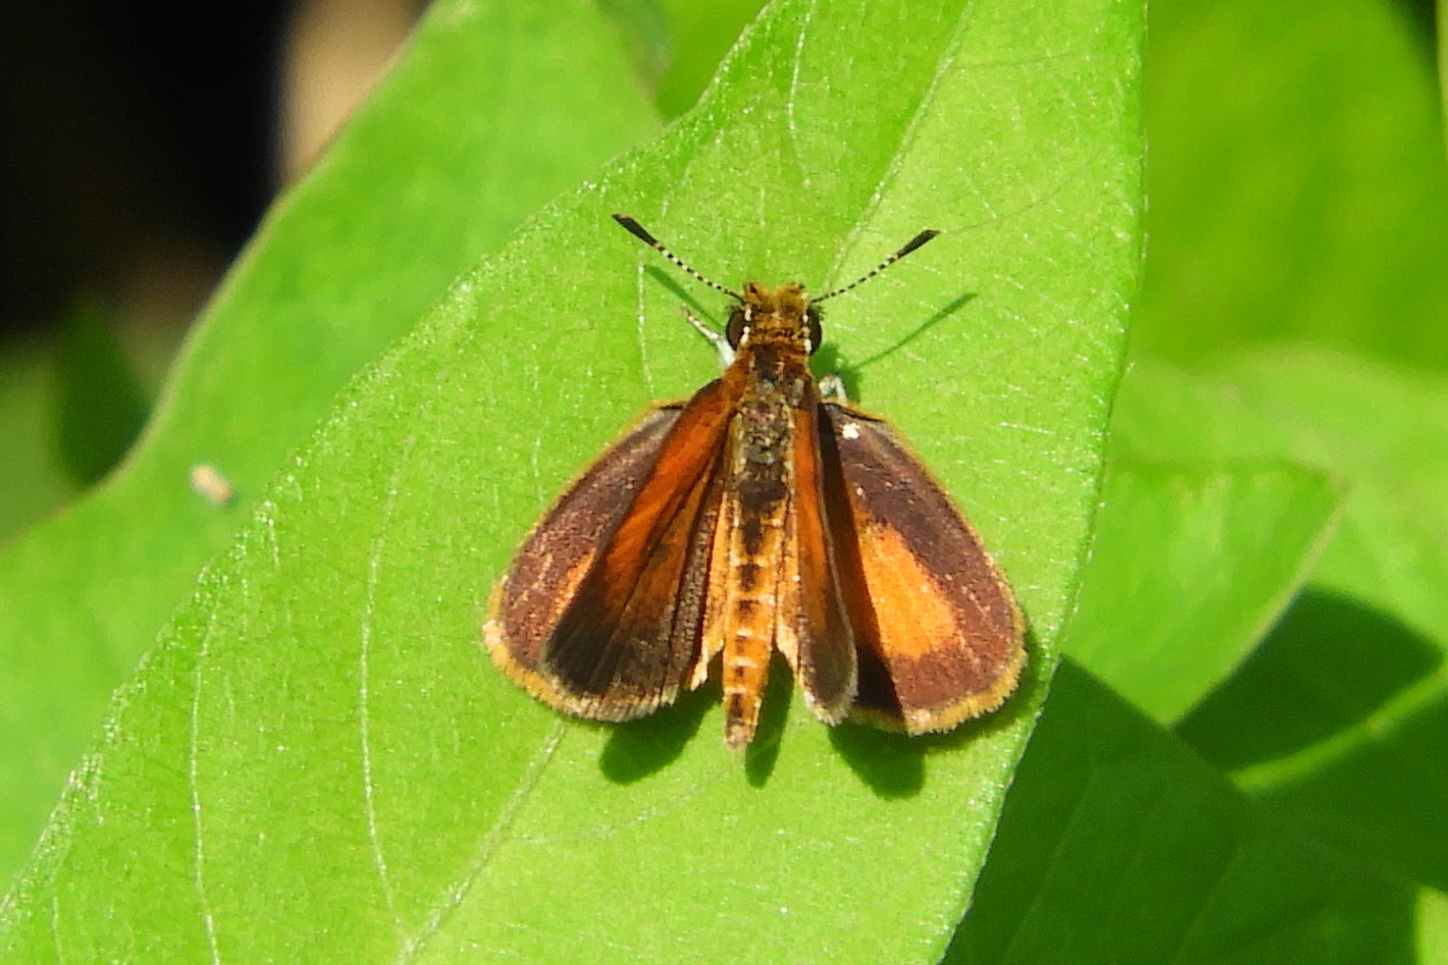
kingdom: Animalia
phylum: Arthropoda
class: Insecta
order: Lepidoptera
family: Hesperiidae
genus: Ancyloxypha
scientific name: Ancyloxypha numitor
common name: Least skipper
